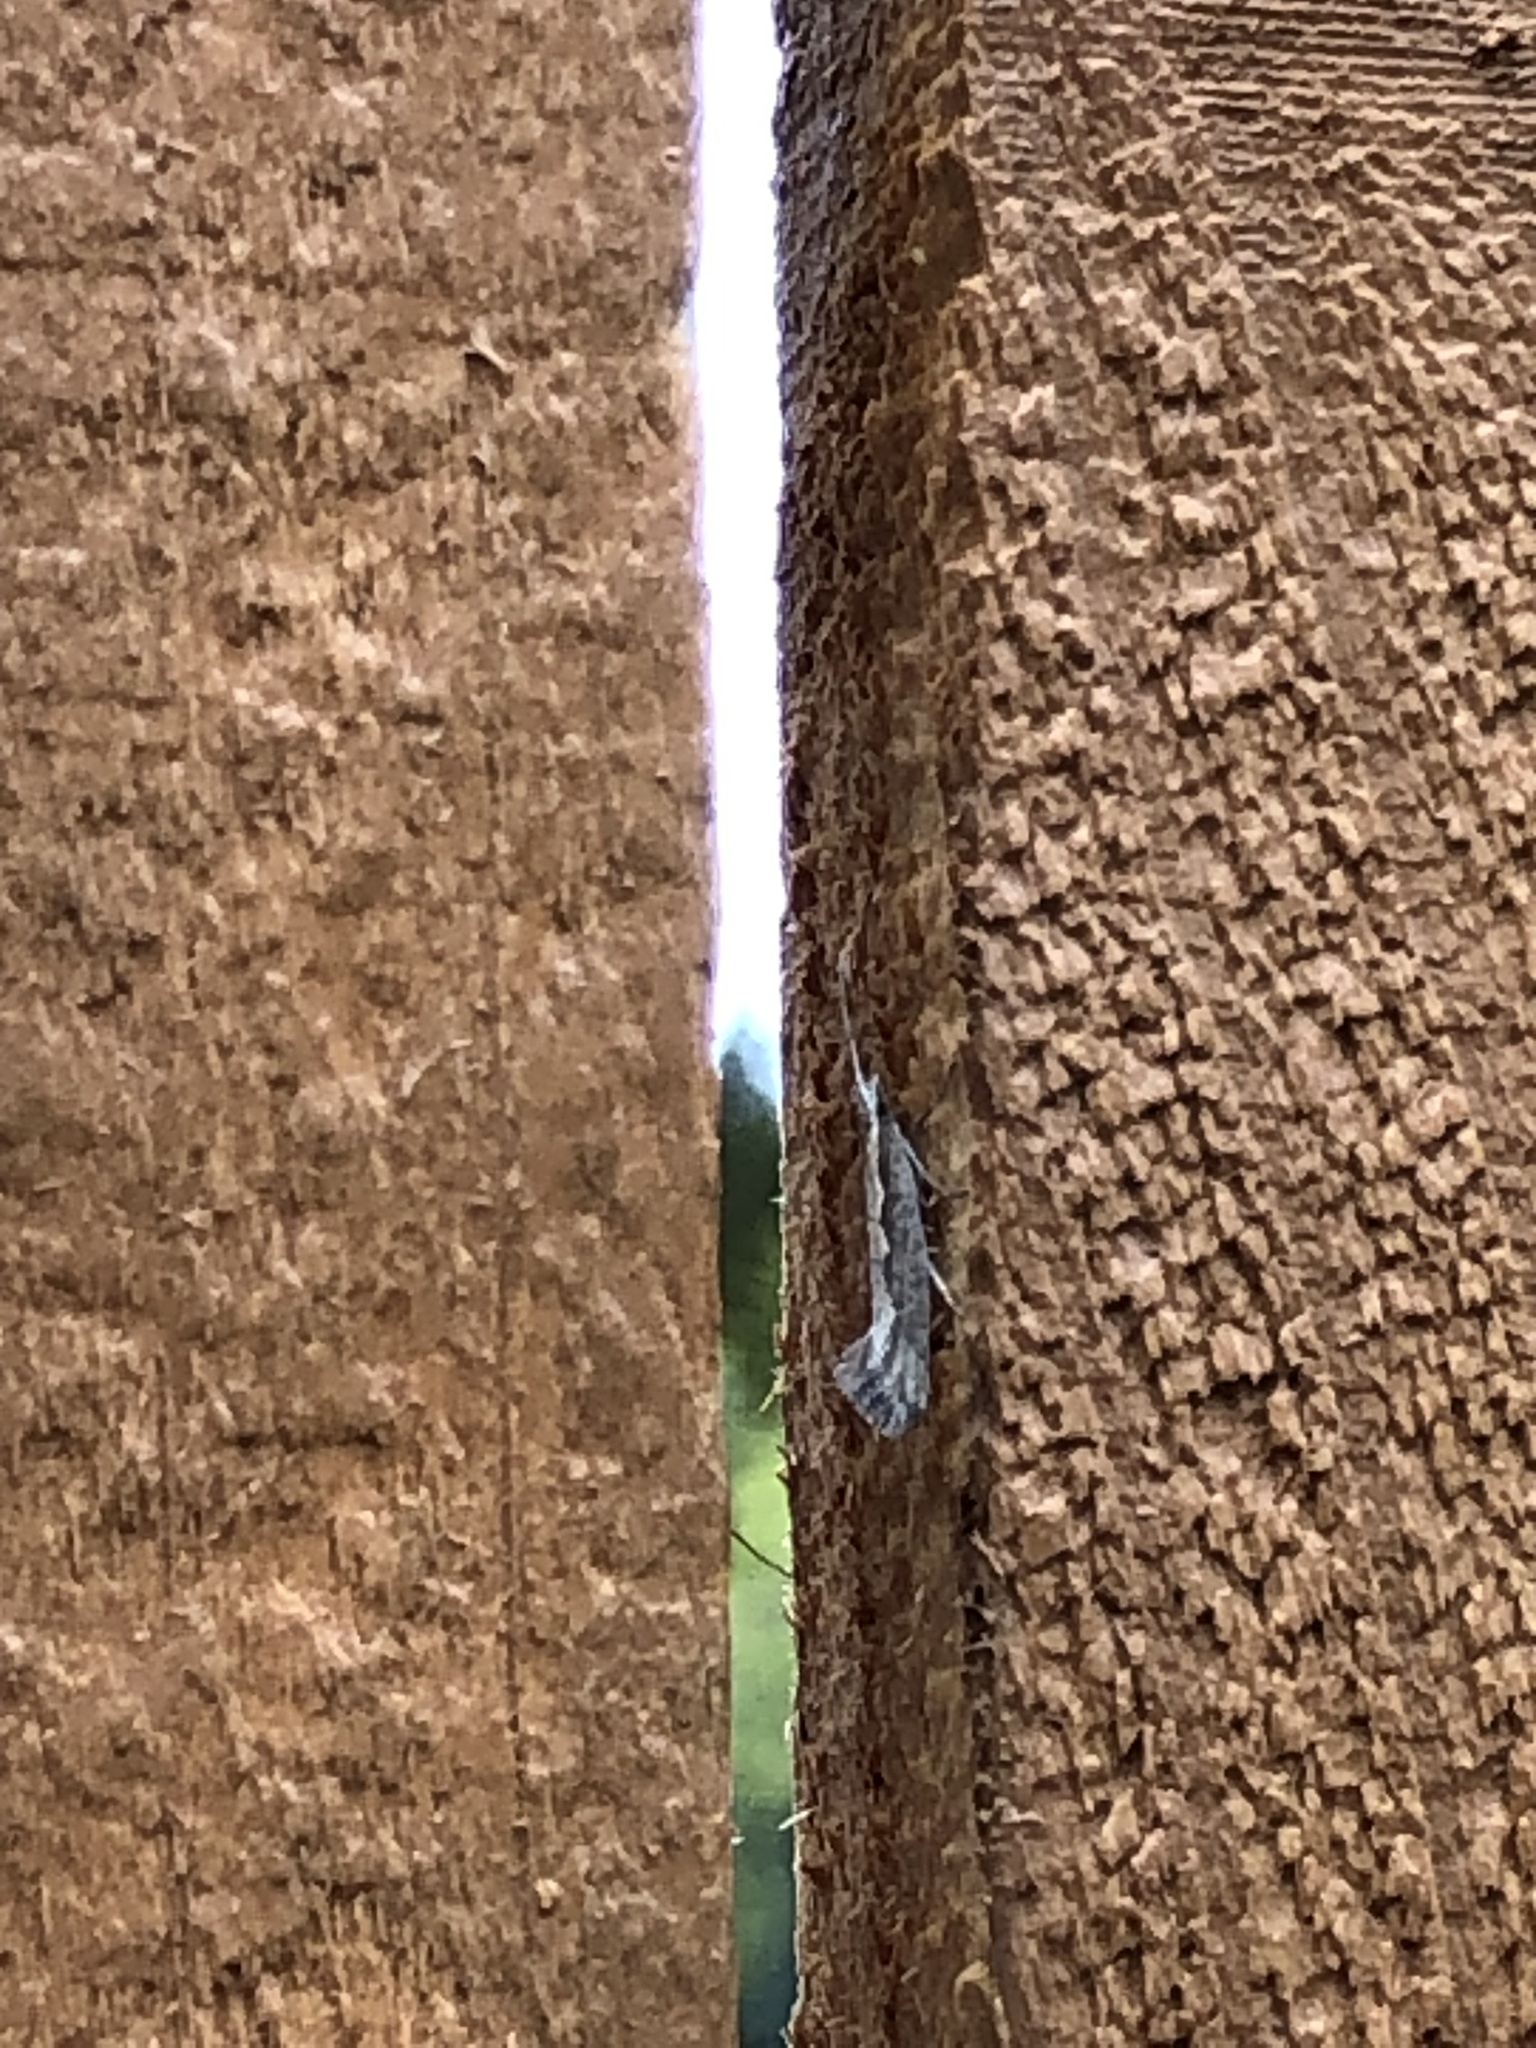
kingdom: Animalia
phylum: Arthropoda
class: Insecta
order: Lepidoptera
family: Plutellidae
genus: Plutella
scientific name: Plutella xylostella
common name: Diamond-back moth
